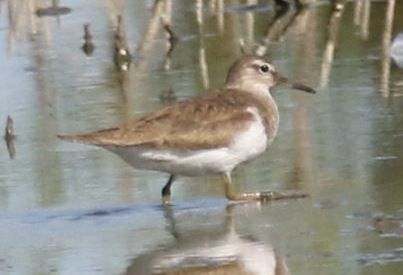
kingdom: Animalia
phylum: Chordata
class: Aves
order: Charadriiformes
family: Scolopacidae
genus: Actitis
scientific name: Actitis hypoleucos
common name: Common sandpiper
